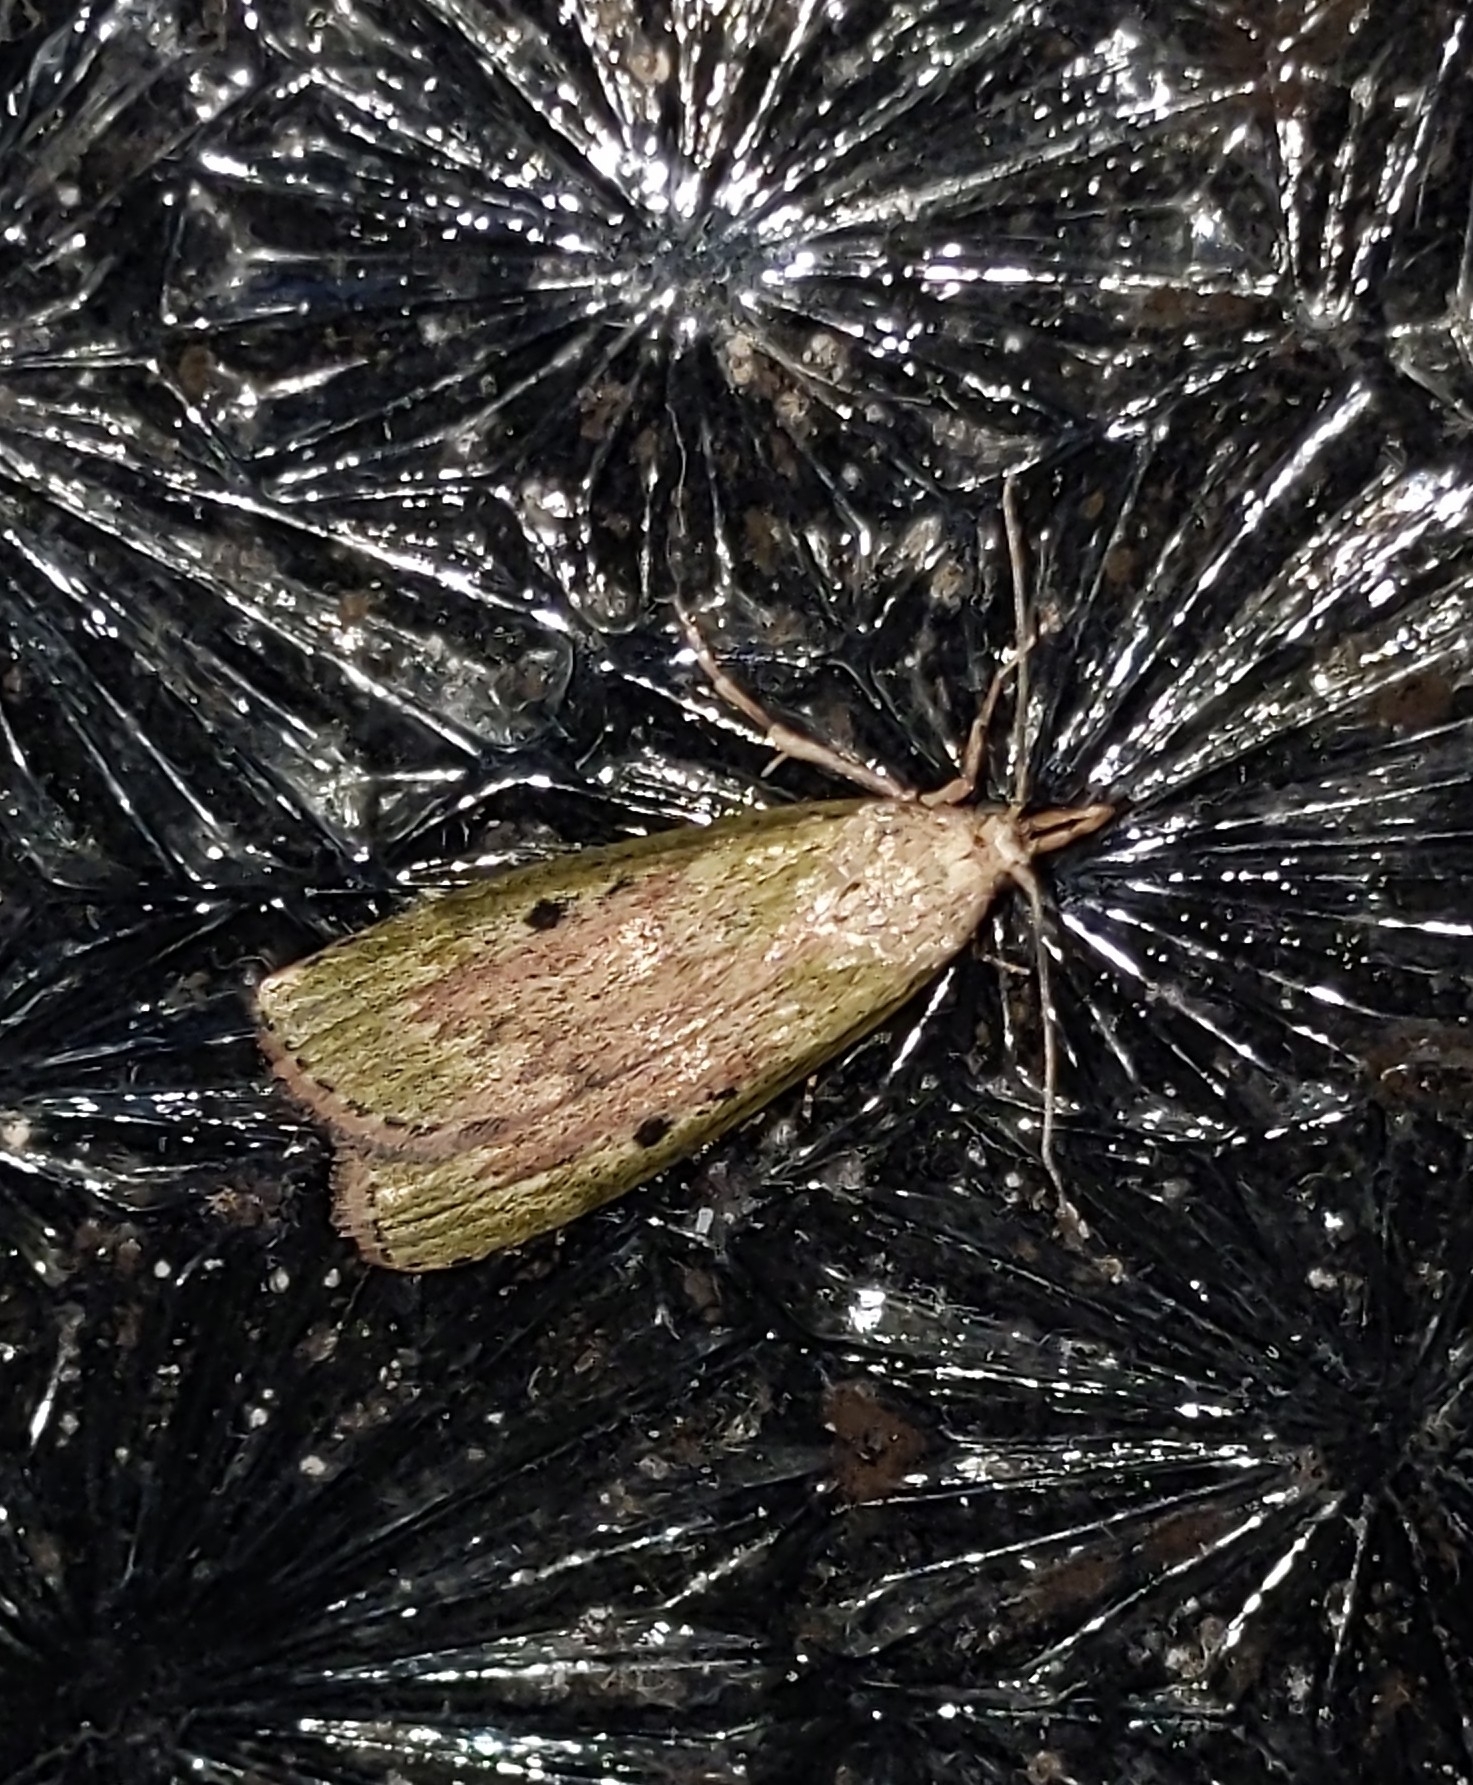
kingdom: Animalia
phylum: Arthropoda
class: Insecta
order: Lepidoptera
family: Pyralidae
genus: Aphomia
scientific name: Aphomia sociella
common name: Bee moth
